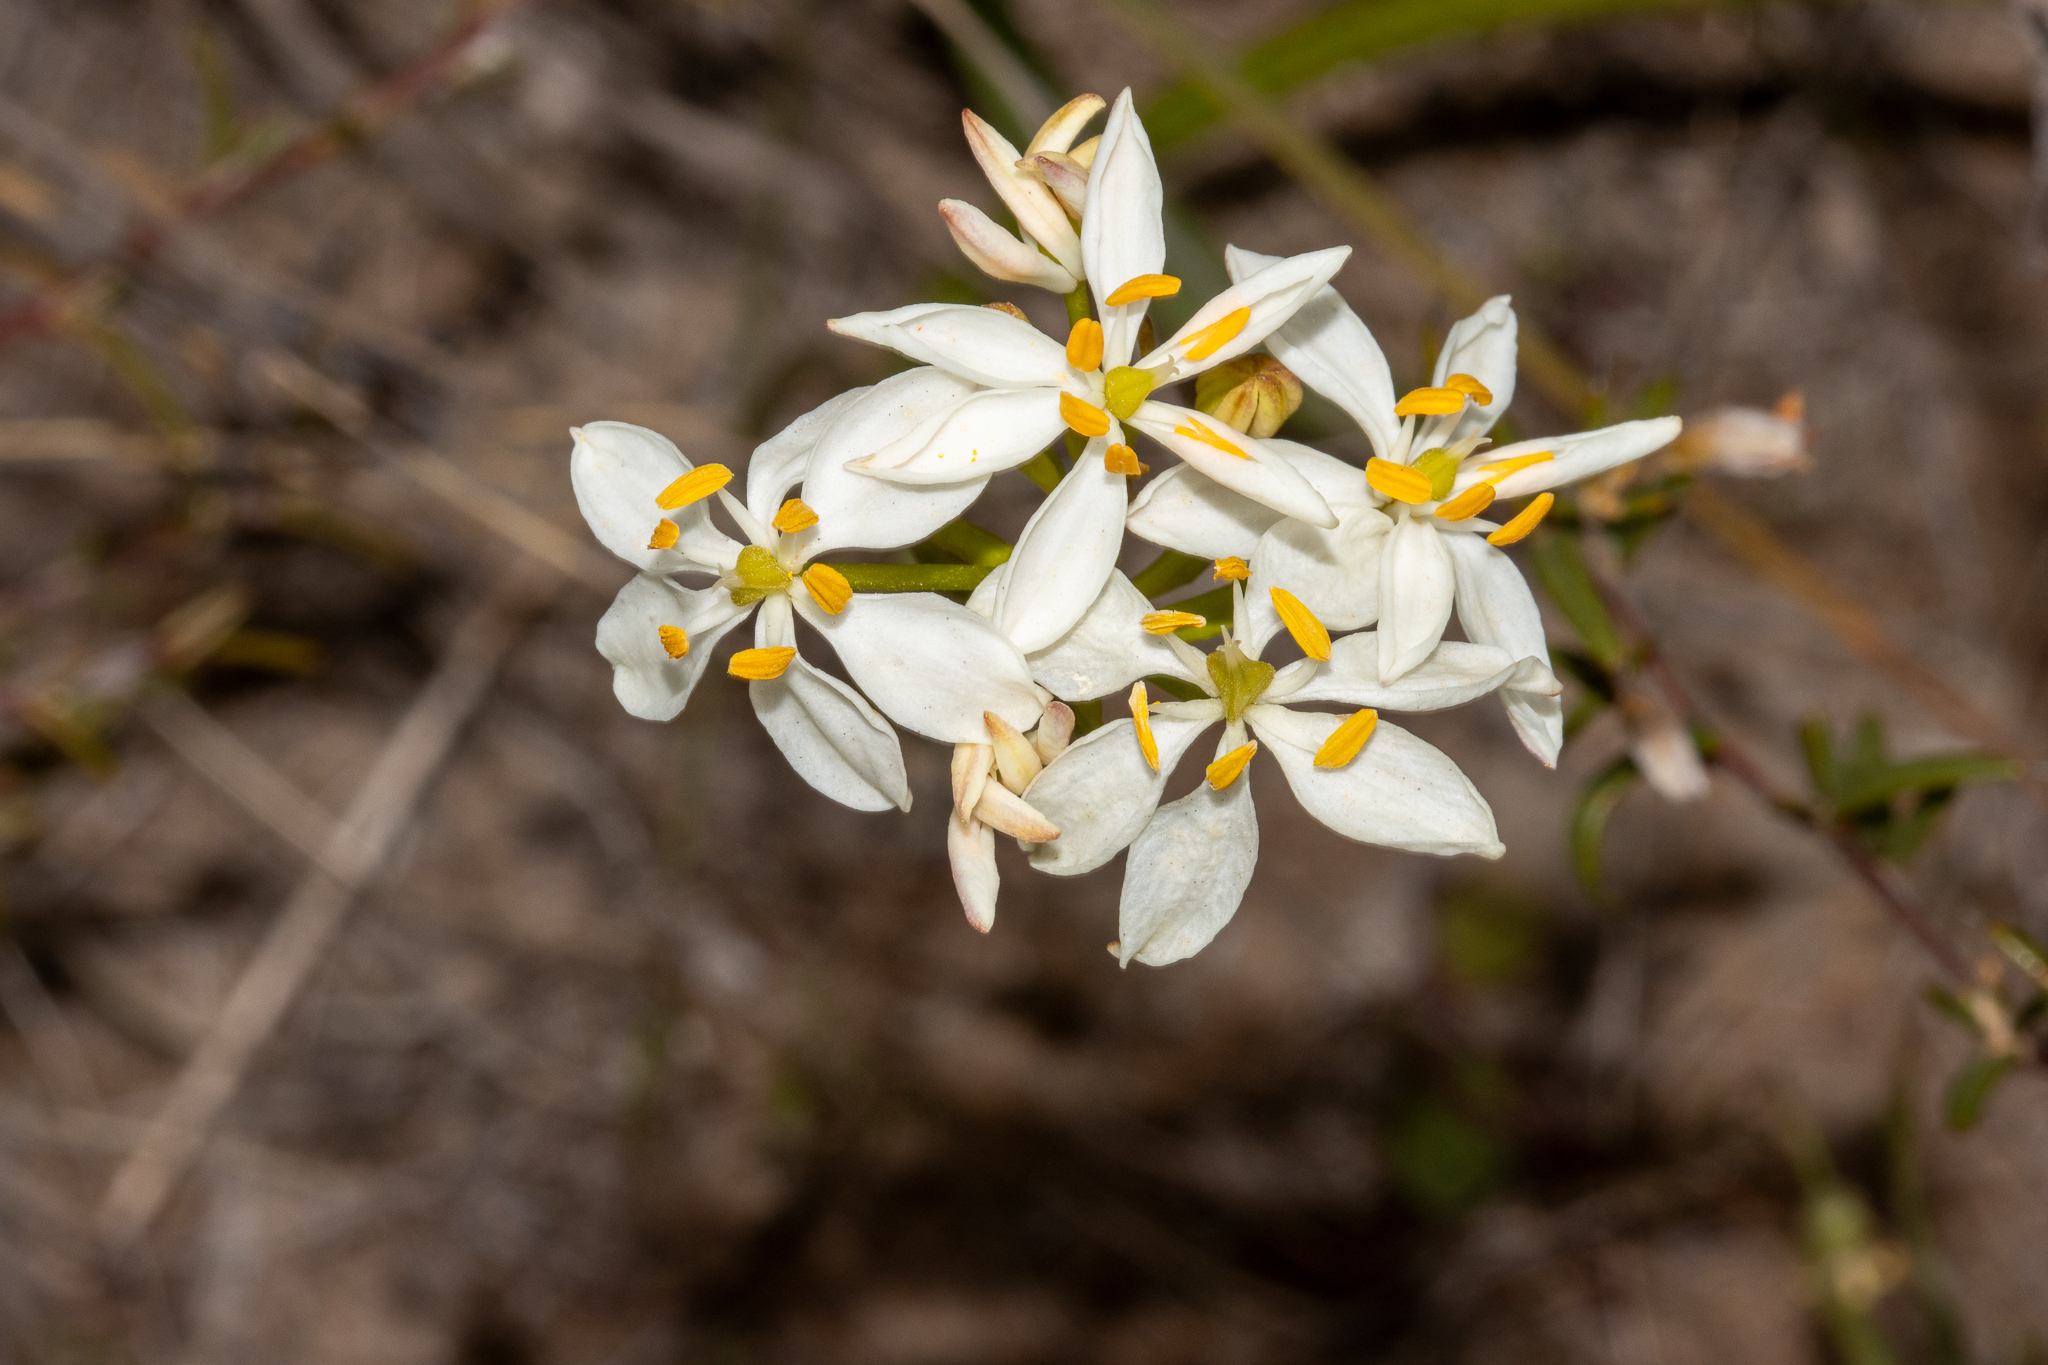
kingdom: Plantae
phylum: Tracheophyta
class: Liliopsida
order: Liliales
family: Colchicaceae
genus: Burchardia
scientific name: Burchardia congesta
